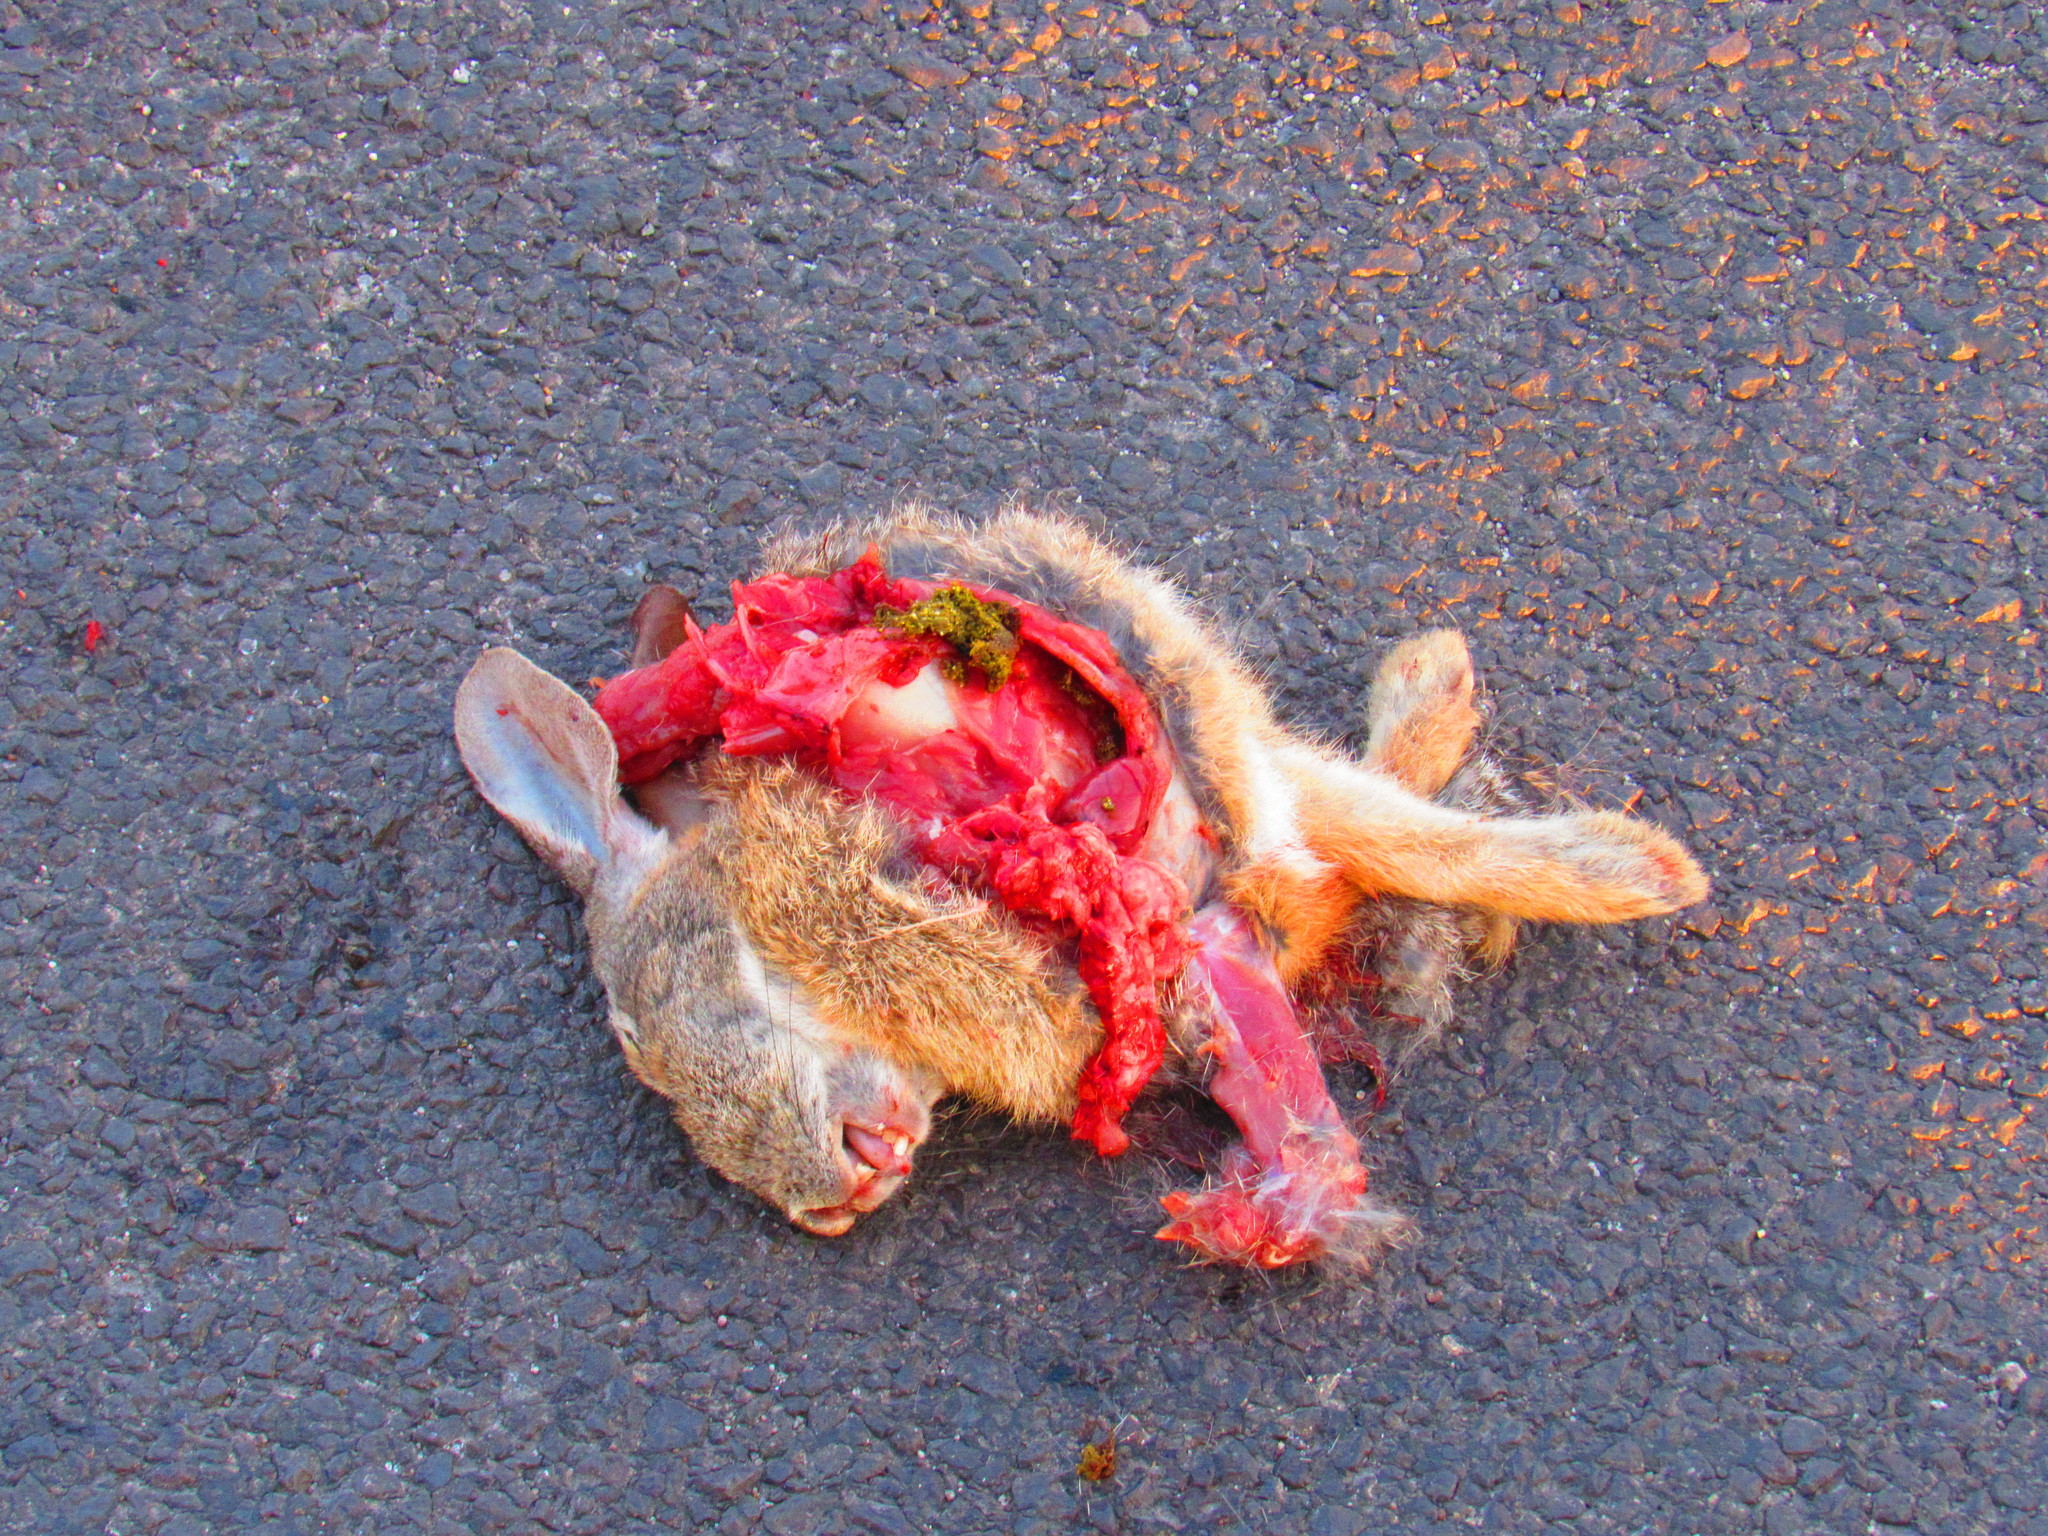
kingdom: Animalia
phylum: Chordata
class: Mammalia
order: Lagomorpha
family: Leporidae
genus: Sylvilagus
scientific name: Sylvilagus floridanus
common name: Eastern cottontail
